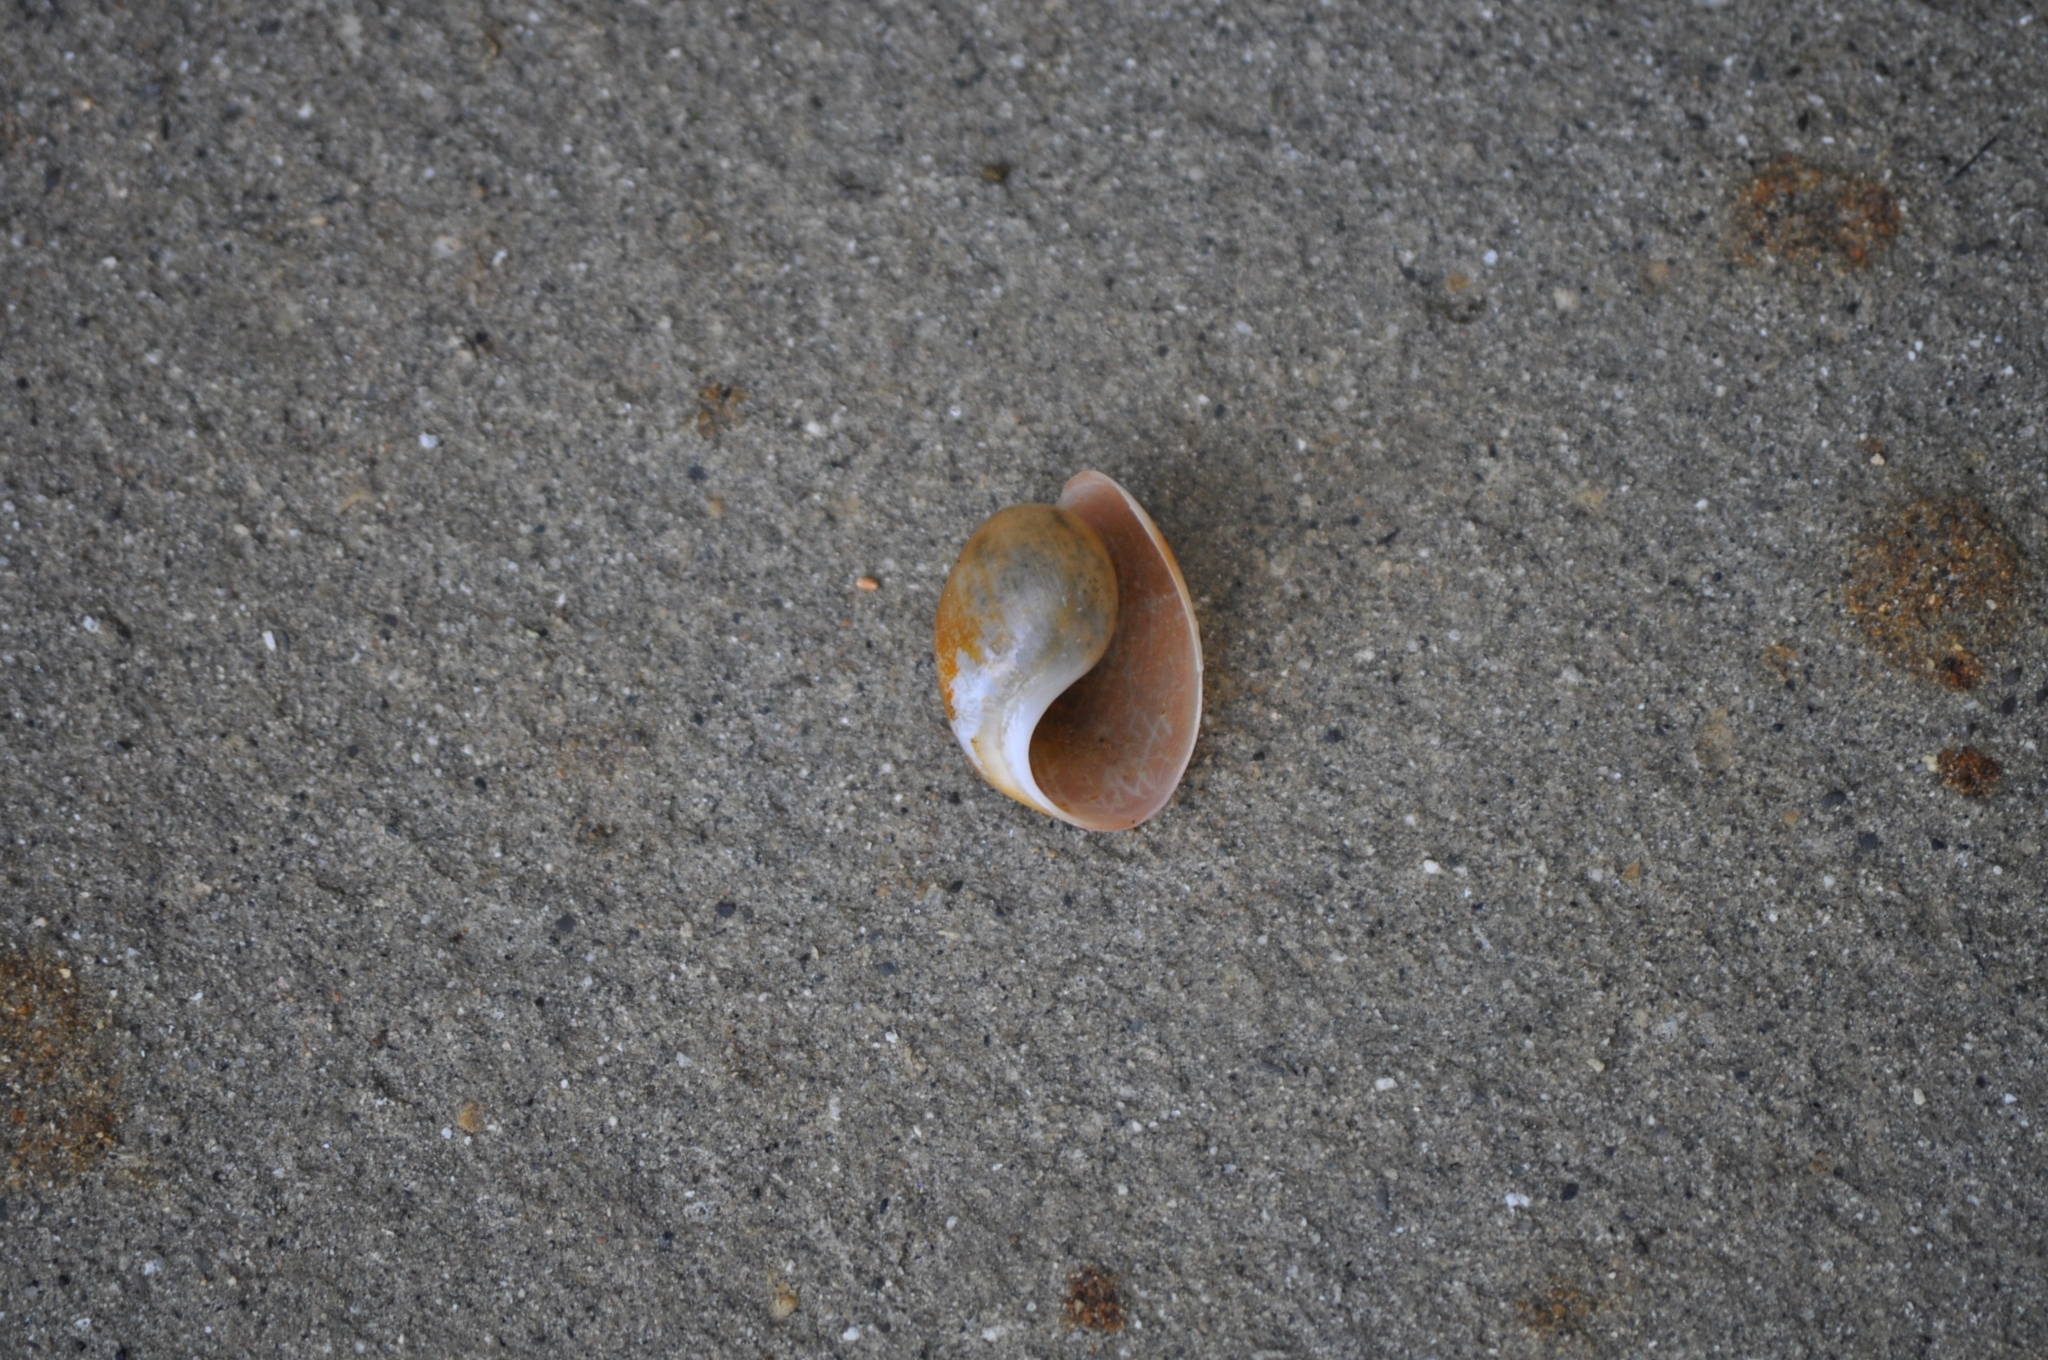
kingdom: Animalia
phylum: Mollusca
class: Gastropoda
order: Cephalaspidea
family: Haminoeidae
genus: Papawera
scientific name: Papawera zelandiae
